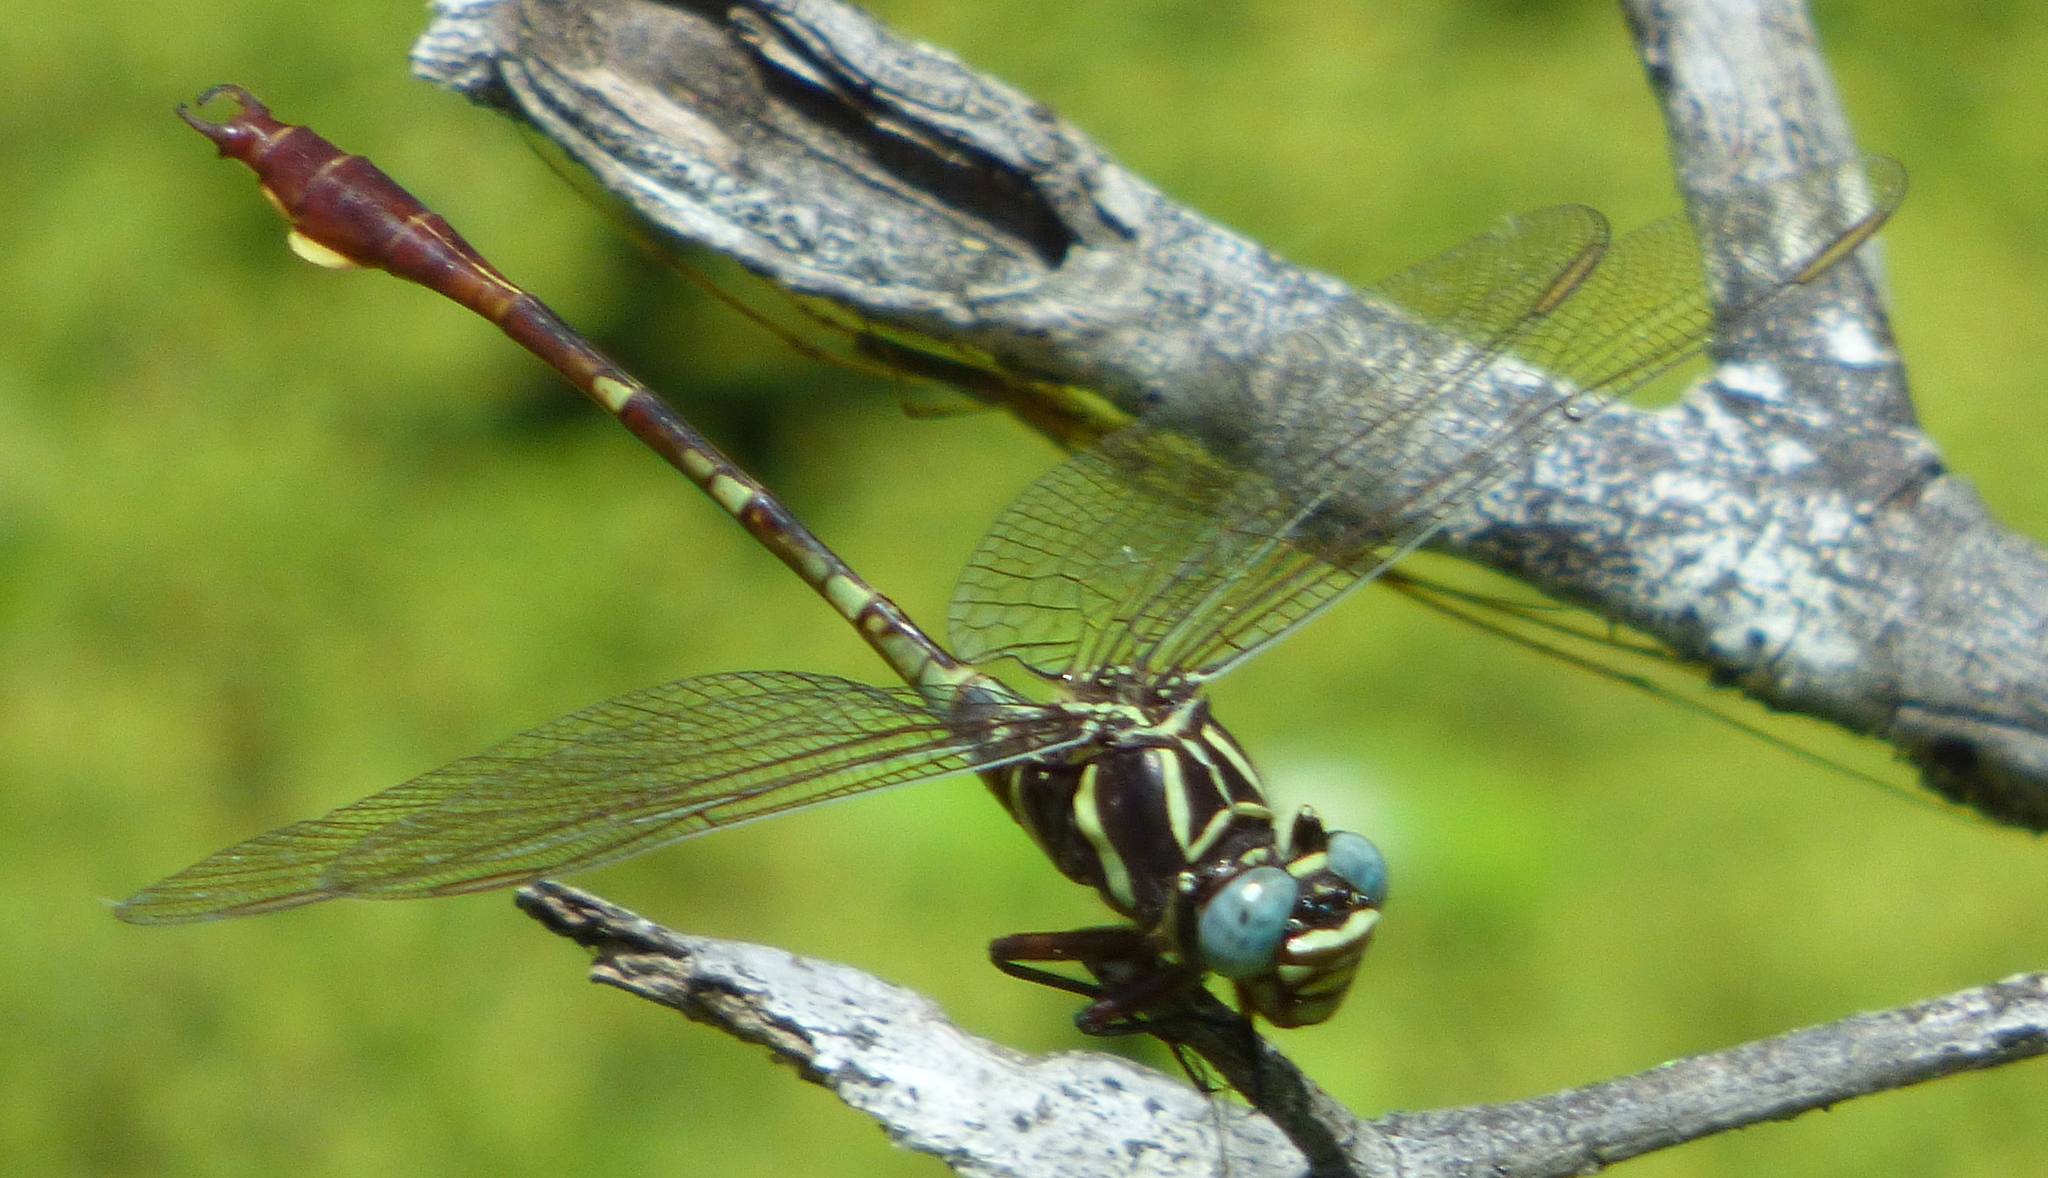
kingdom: Animalia
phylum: Arthropoda
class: Insecta
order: Odonata
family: Gomphidae
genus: Aphylla
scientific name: Aphylla williamsoni
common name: Two-striped forceptail
